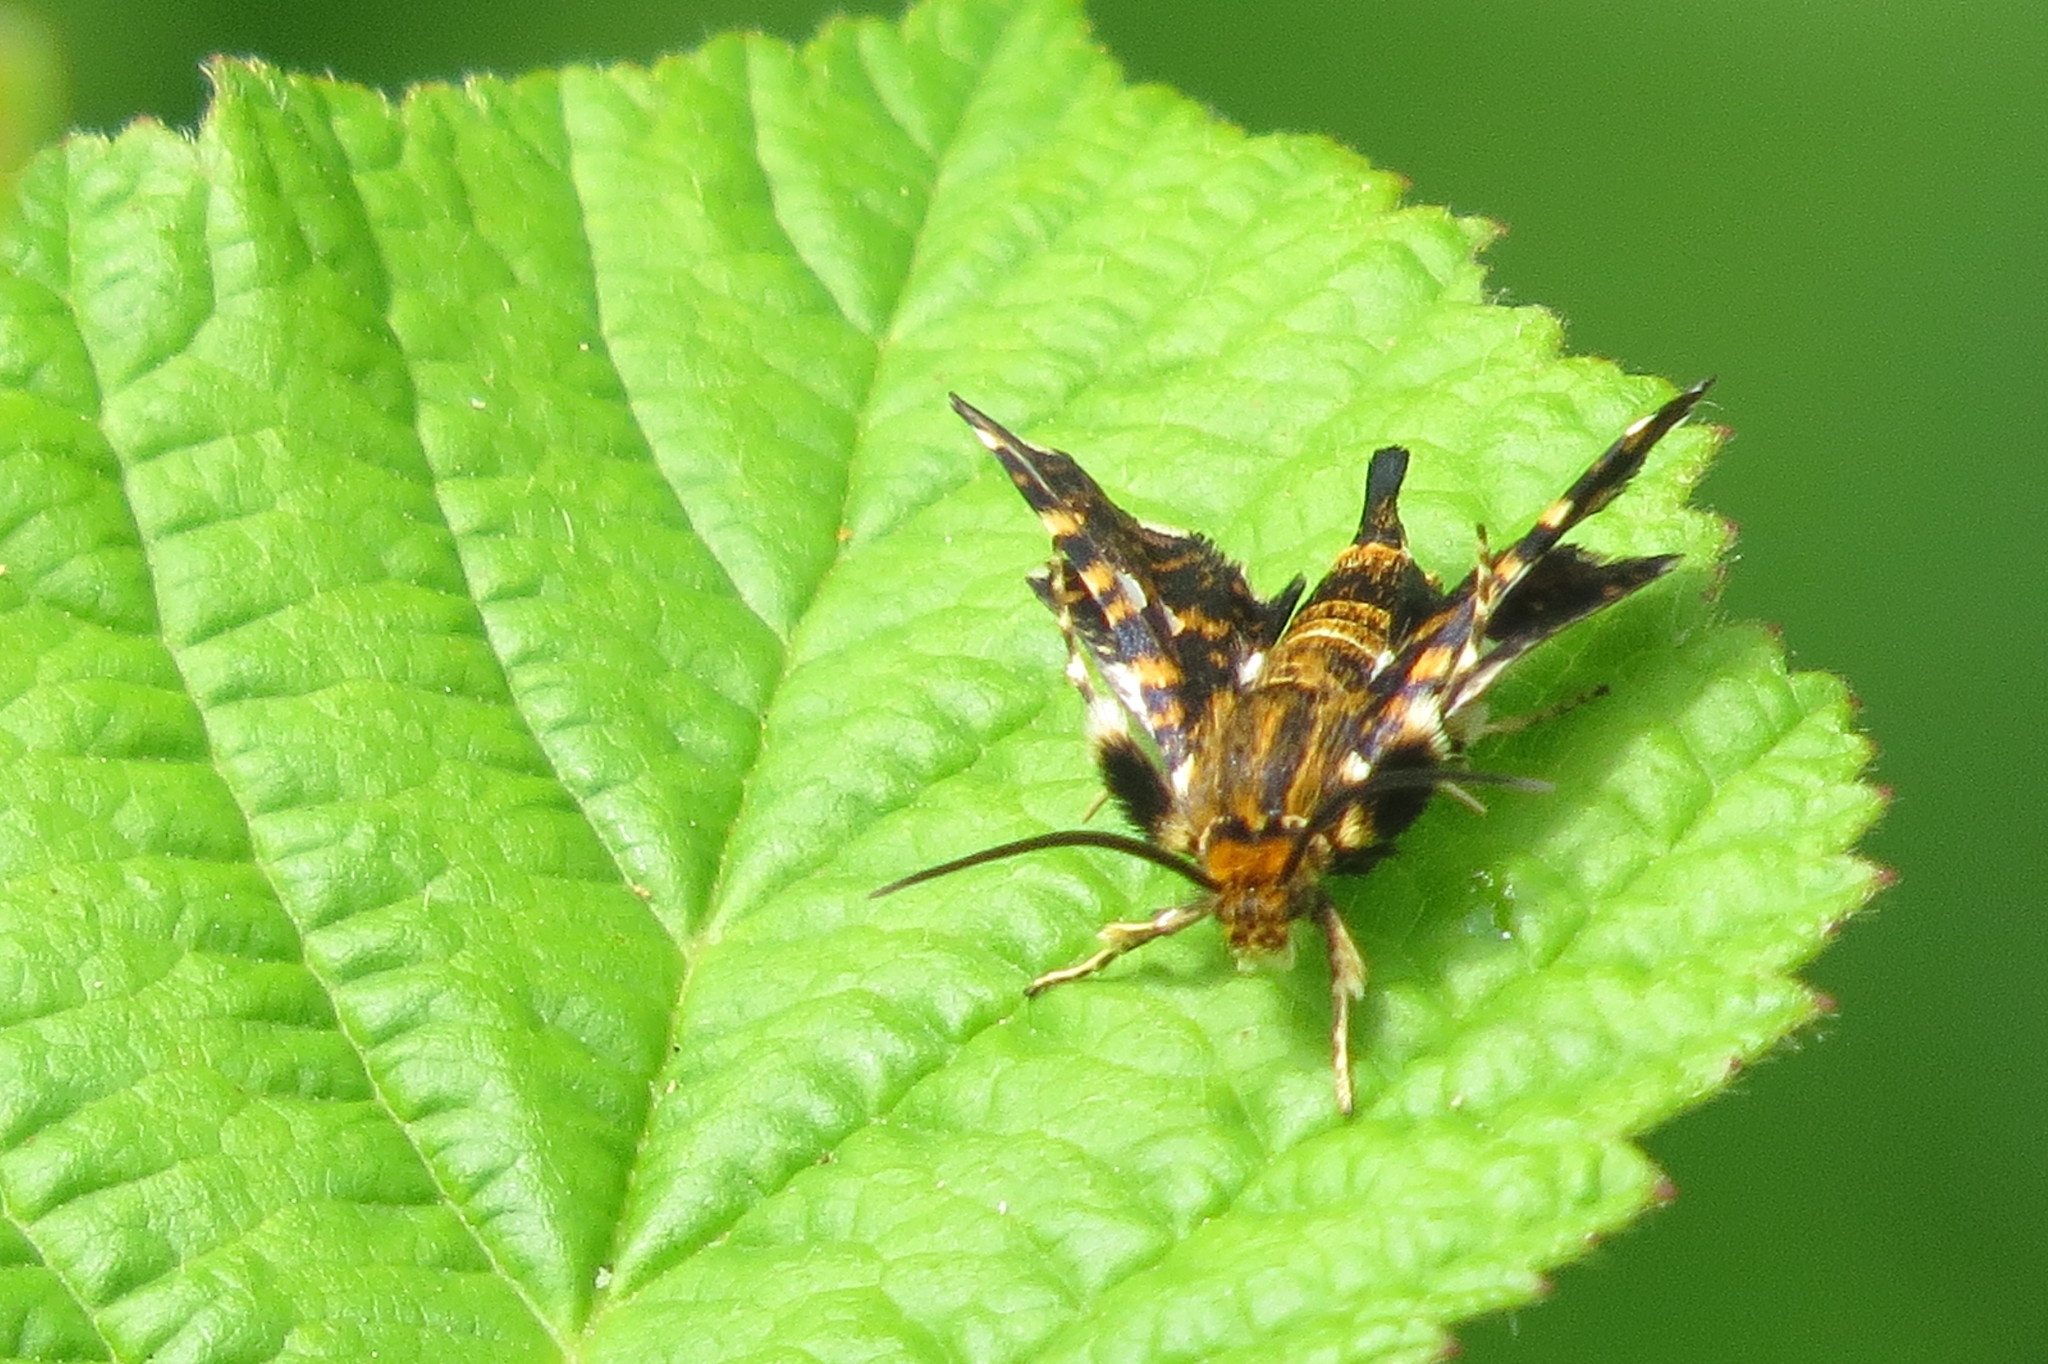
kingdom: Animalia
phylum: Arthropoda
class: Insecta
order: Lepidoptera
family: Thyrididae
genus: Thyris
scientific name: Thyris fenestrella
